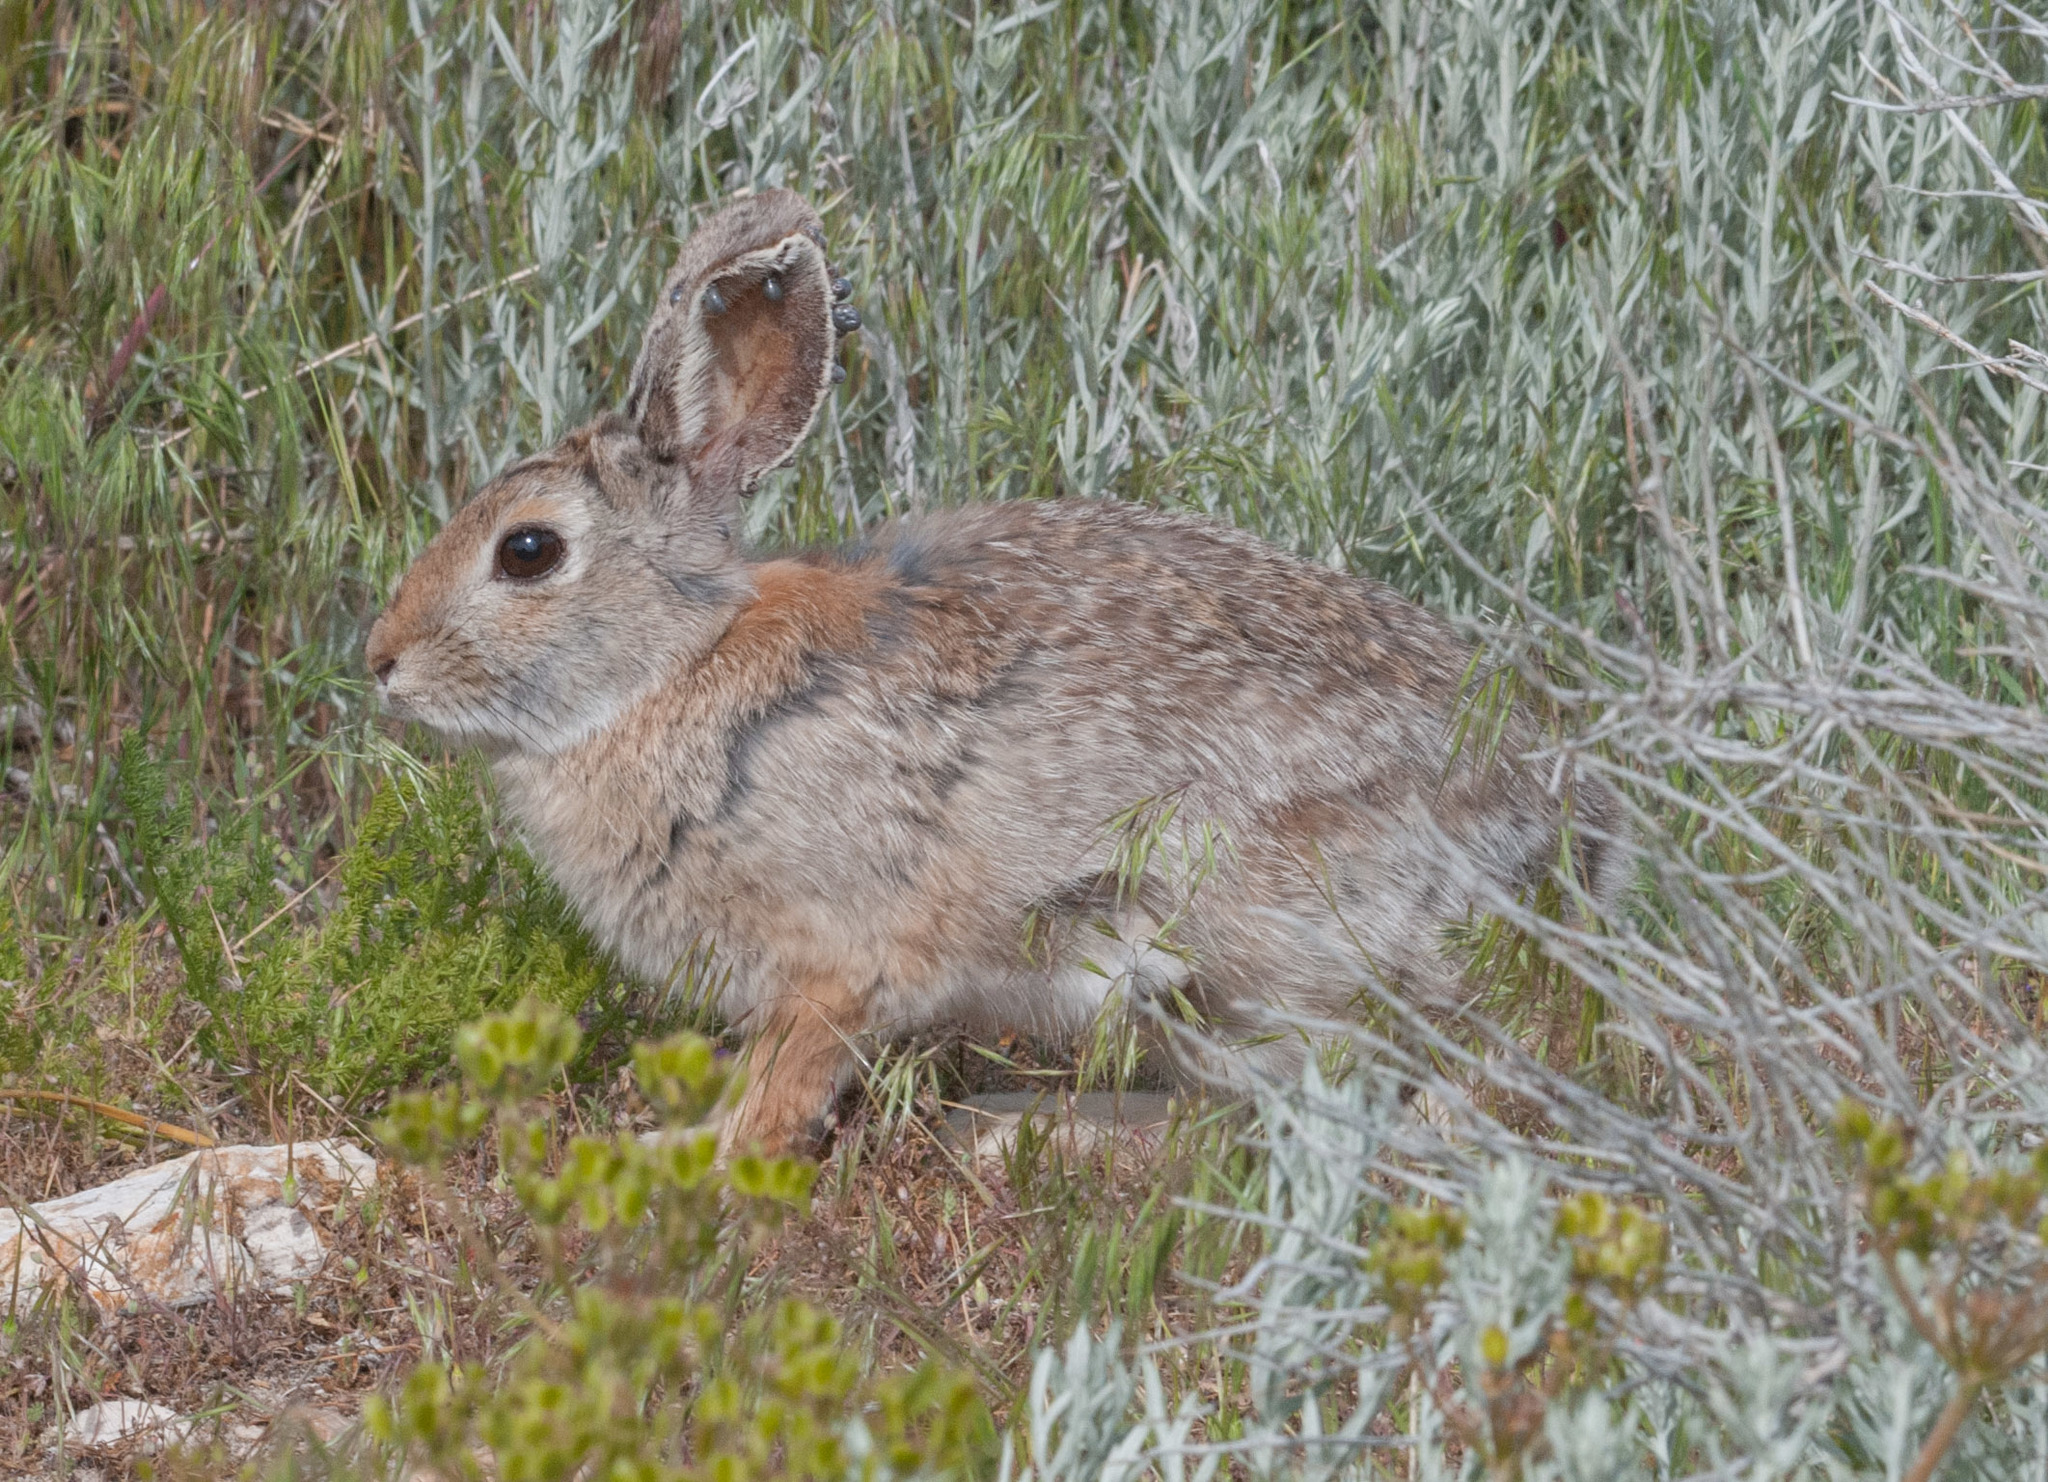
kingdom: Animalia
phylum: Chordata
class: Mammalia
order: Lagomorpha
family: Leporidae
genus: Sylvilagus
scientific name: Sylvilagus nuttallii
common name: Mountain cottontail
